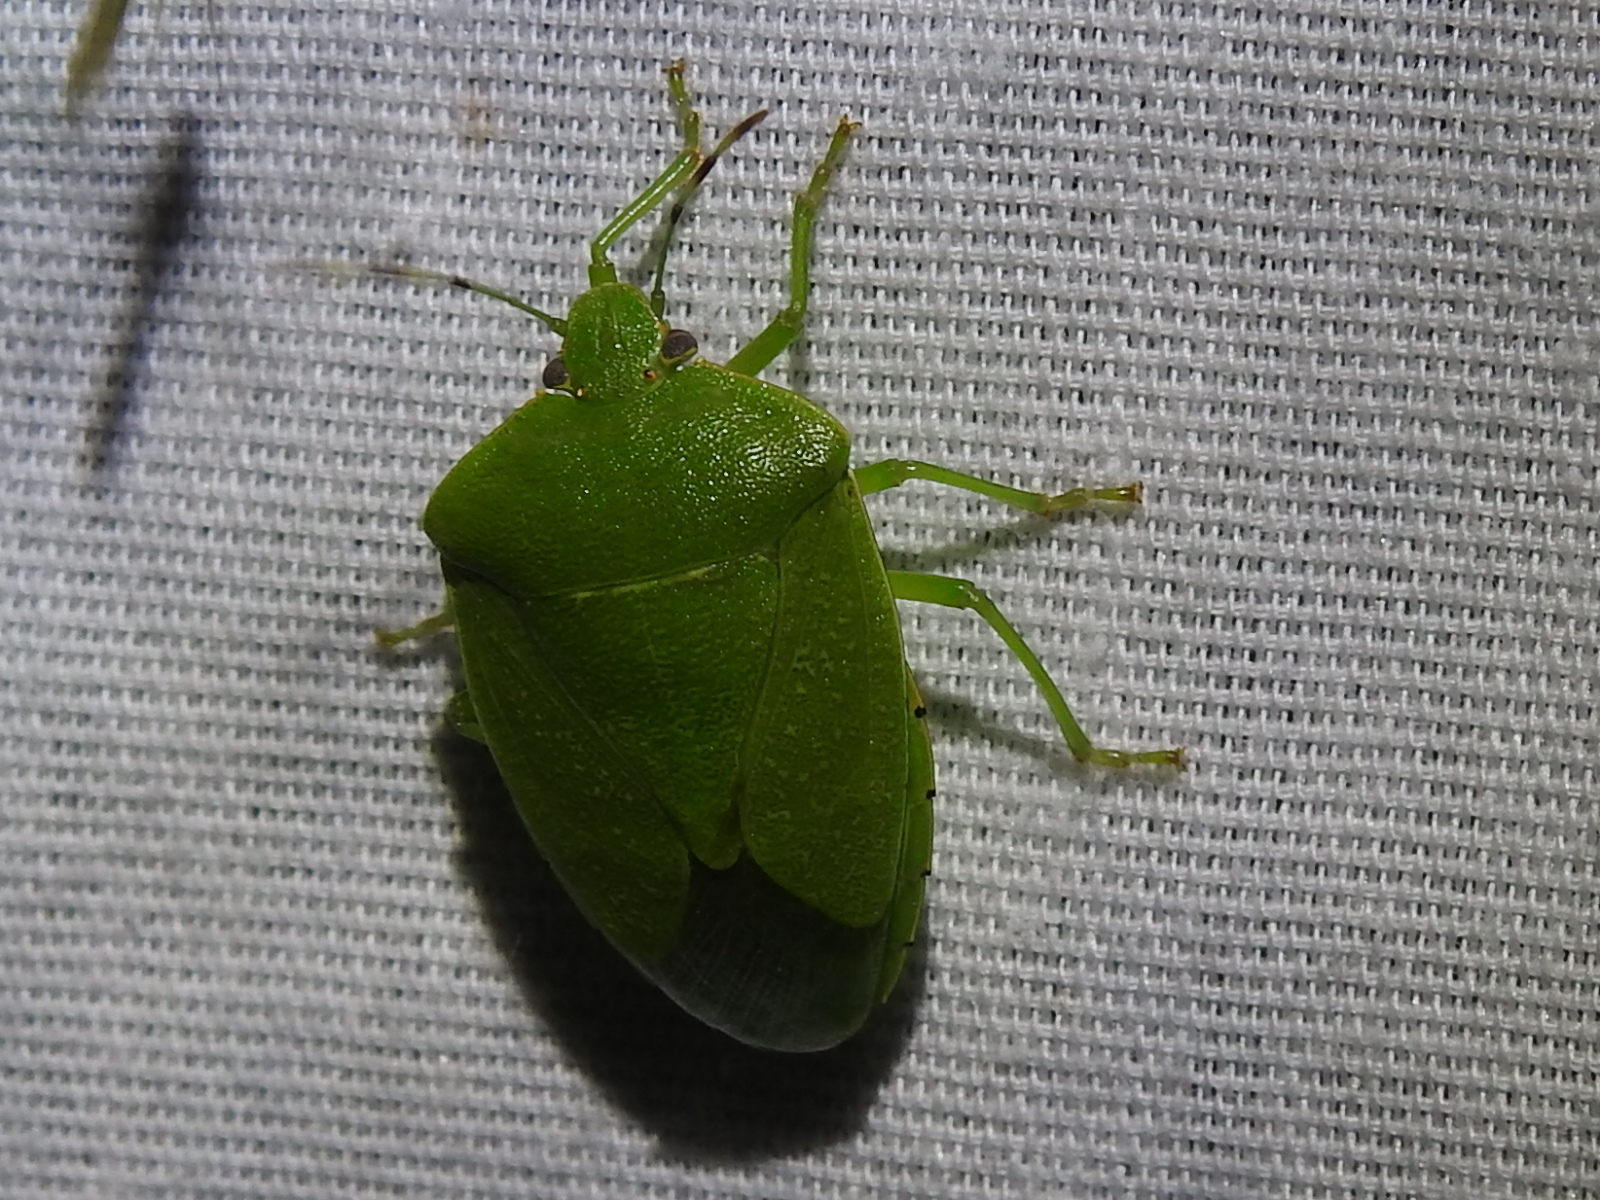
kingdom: Animalia
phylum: Arthropoda
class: Insecta
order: Hemiptera
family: Pentatomidae
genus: Chinavia
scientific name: Chinavia hilaris
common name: Green stink bug
